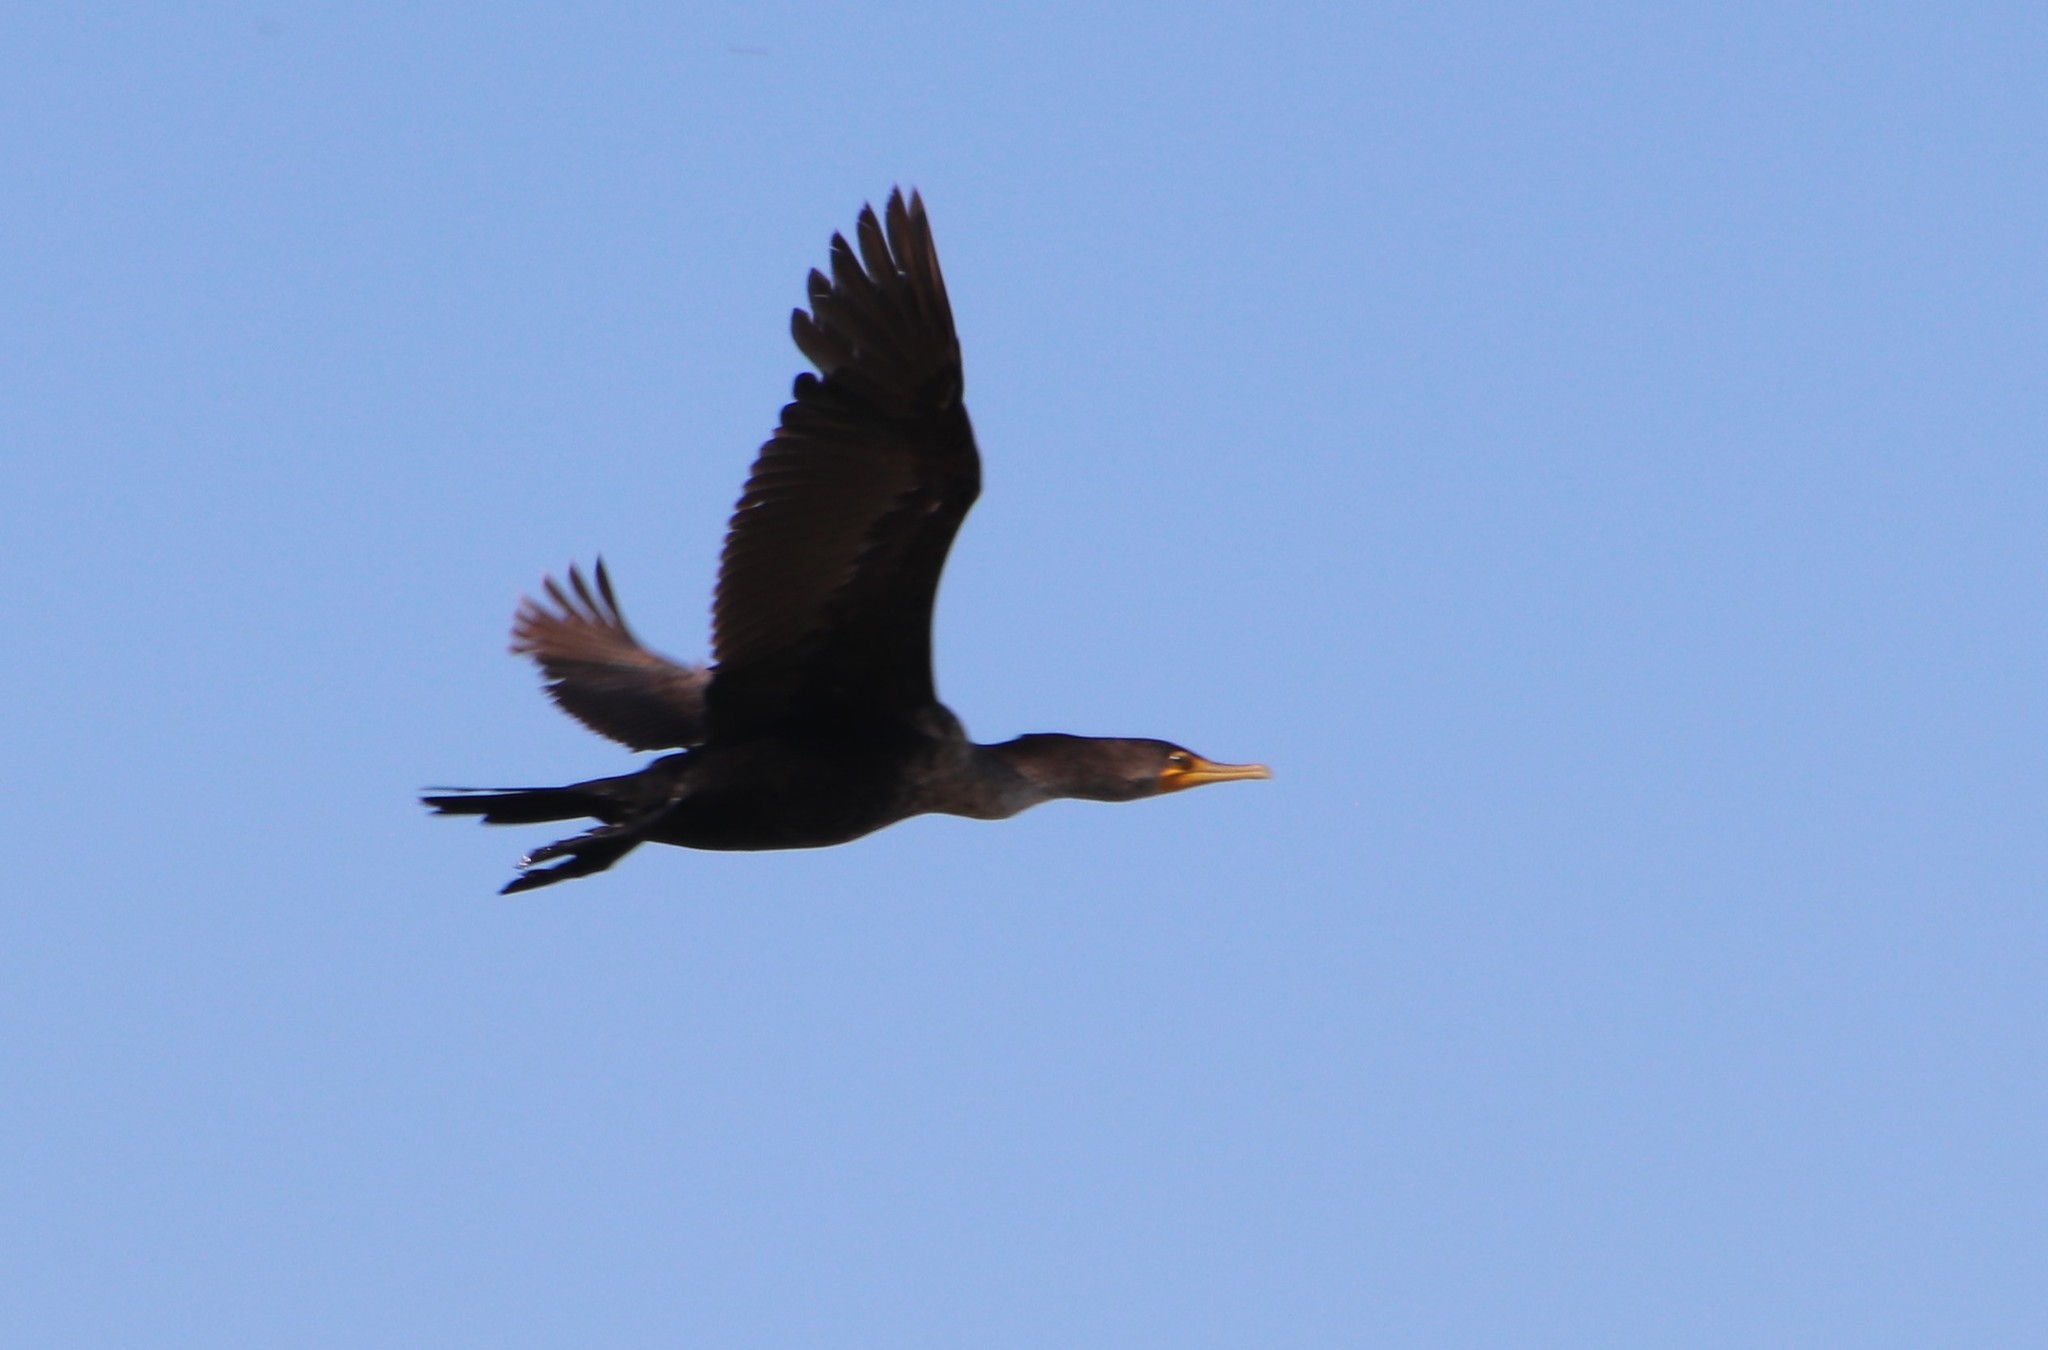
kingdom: Animalia
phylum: Chordata
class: Aves
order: Suliformes
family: Phalacrocoracidae
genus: Phalacrocorax
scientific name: Phalacrocorax auritus
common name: Double-crested cormorant
